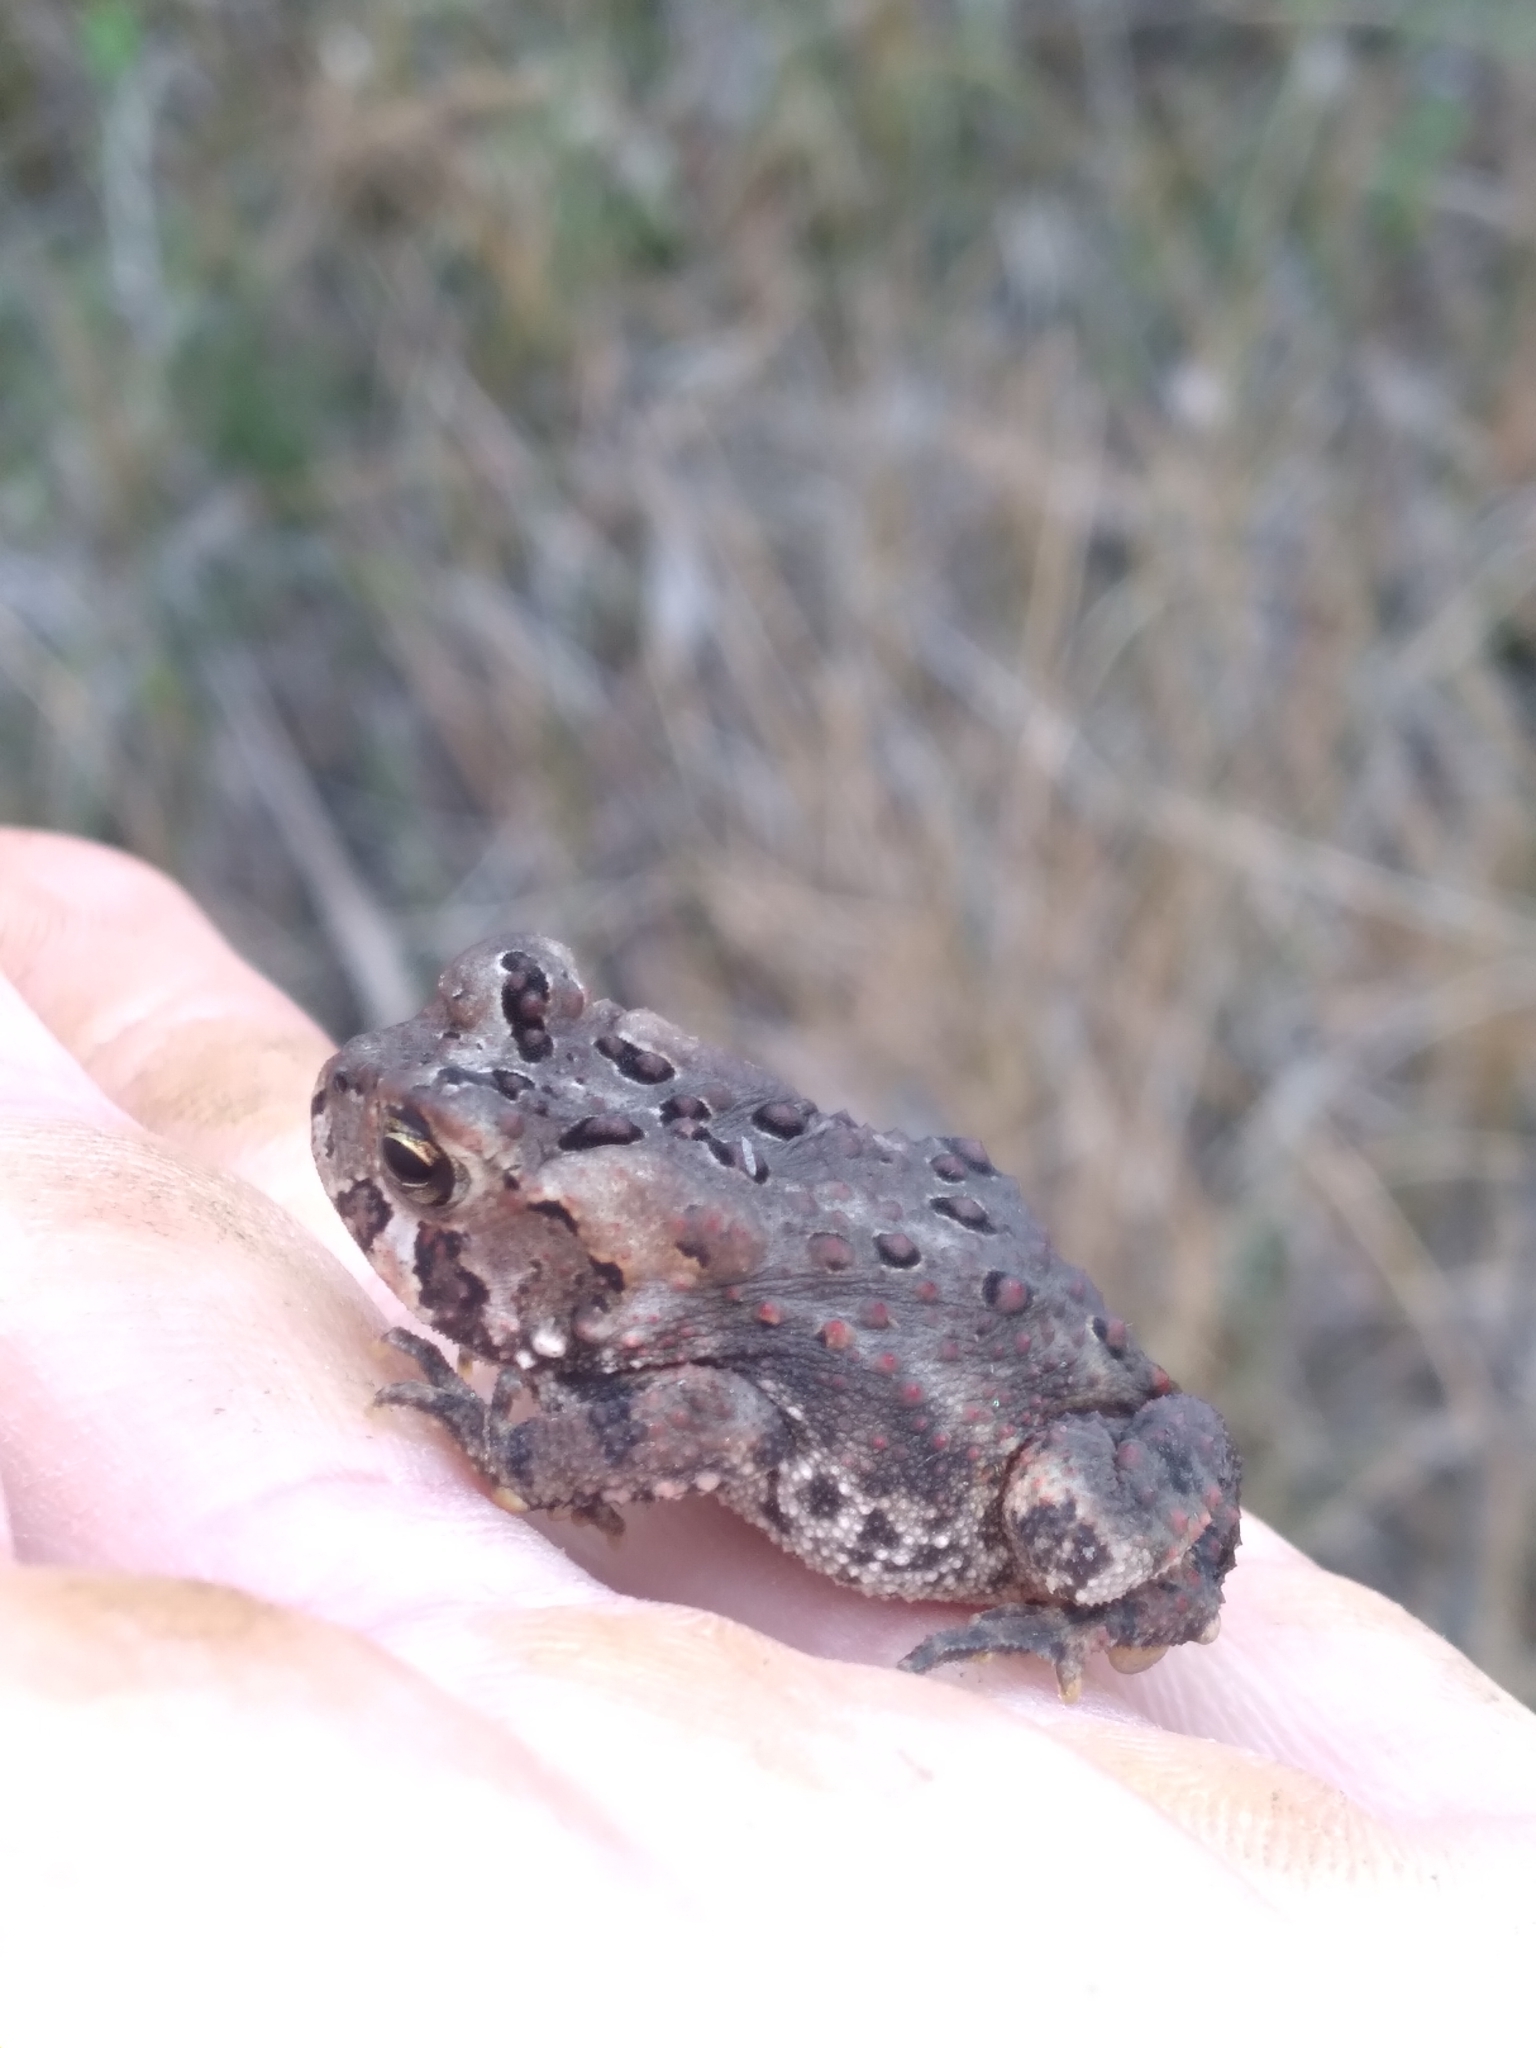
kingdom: Animalia
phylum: Chordata
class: Amphibia
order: Anura
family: Bufonidae
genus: Anaxyrus
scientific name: Anaxyrus americanus
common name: American toad
